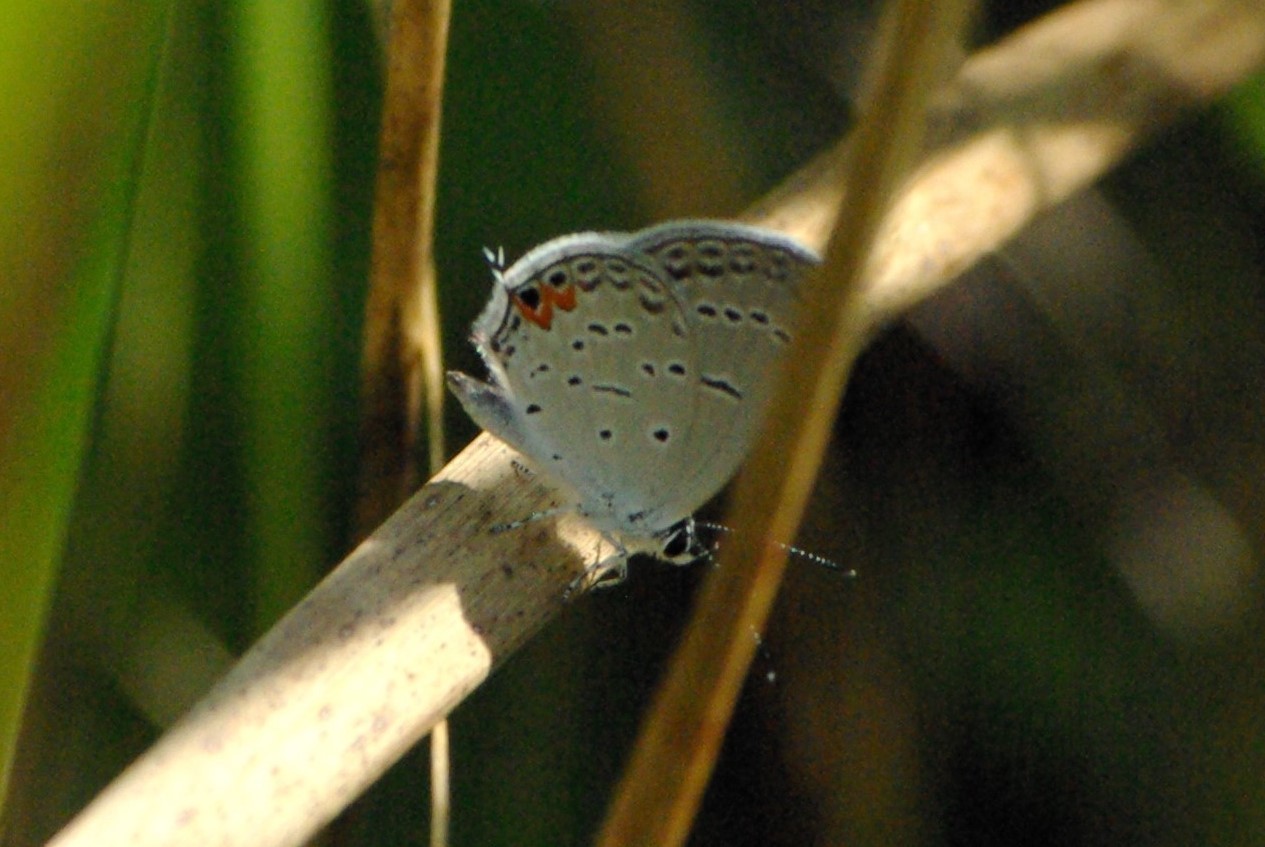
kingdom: Animalia
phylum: Arthropoda
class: Insecta
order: Lepidoptera
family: Lycaenidae
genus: Elkalyce
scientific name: Elkalyce comyntas
